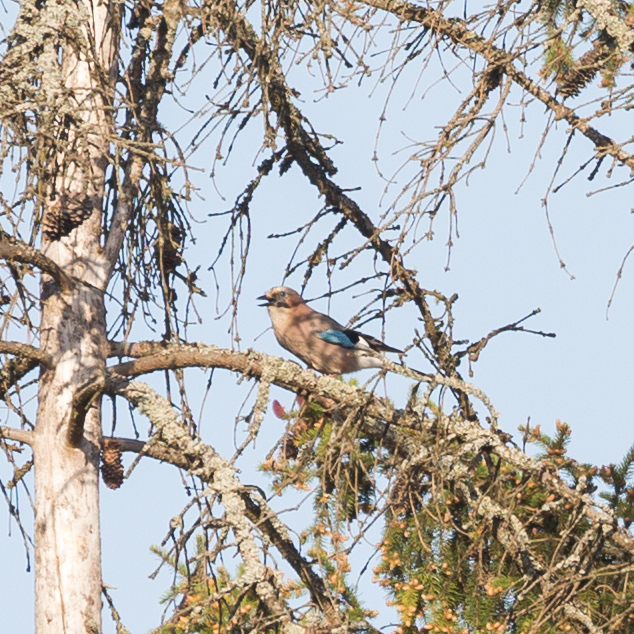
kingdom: Animalia
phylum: Chordata
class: Aves
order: Passeriformes
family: Corvidae
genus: Garrulus
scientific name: Garrulus glandarius
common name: Eurasian jay
